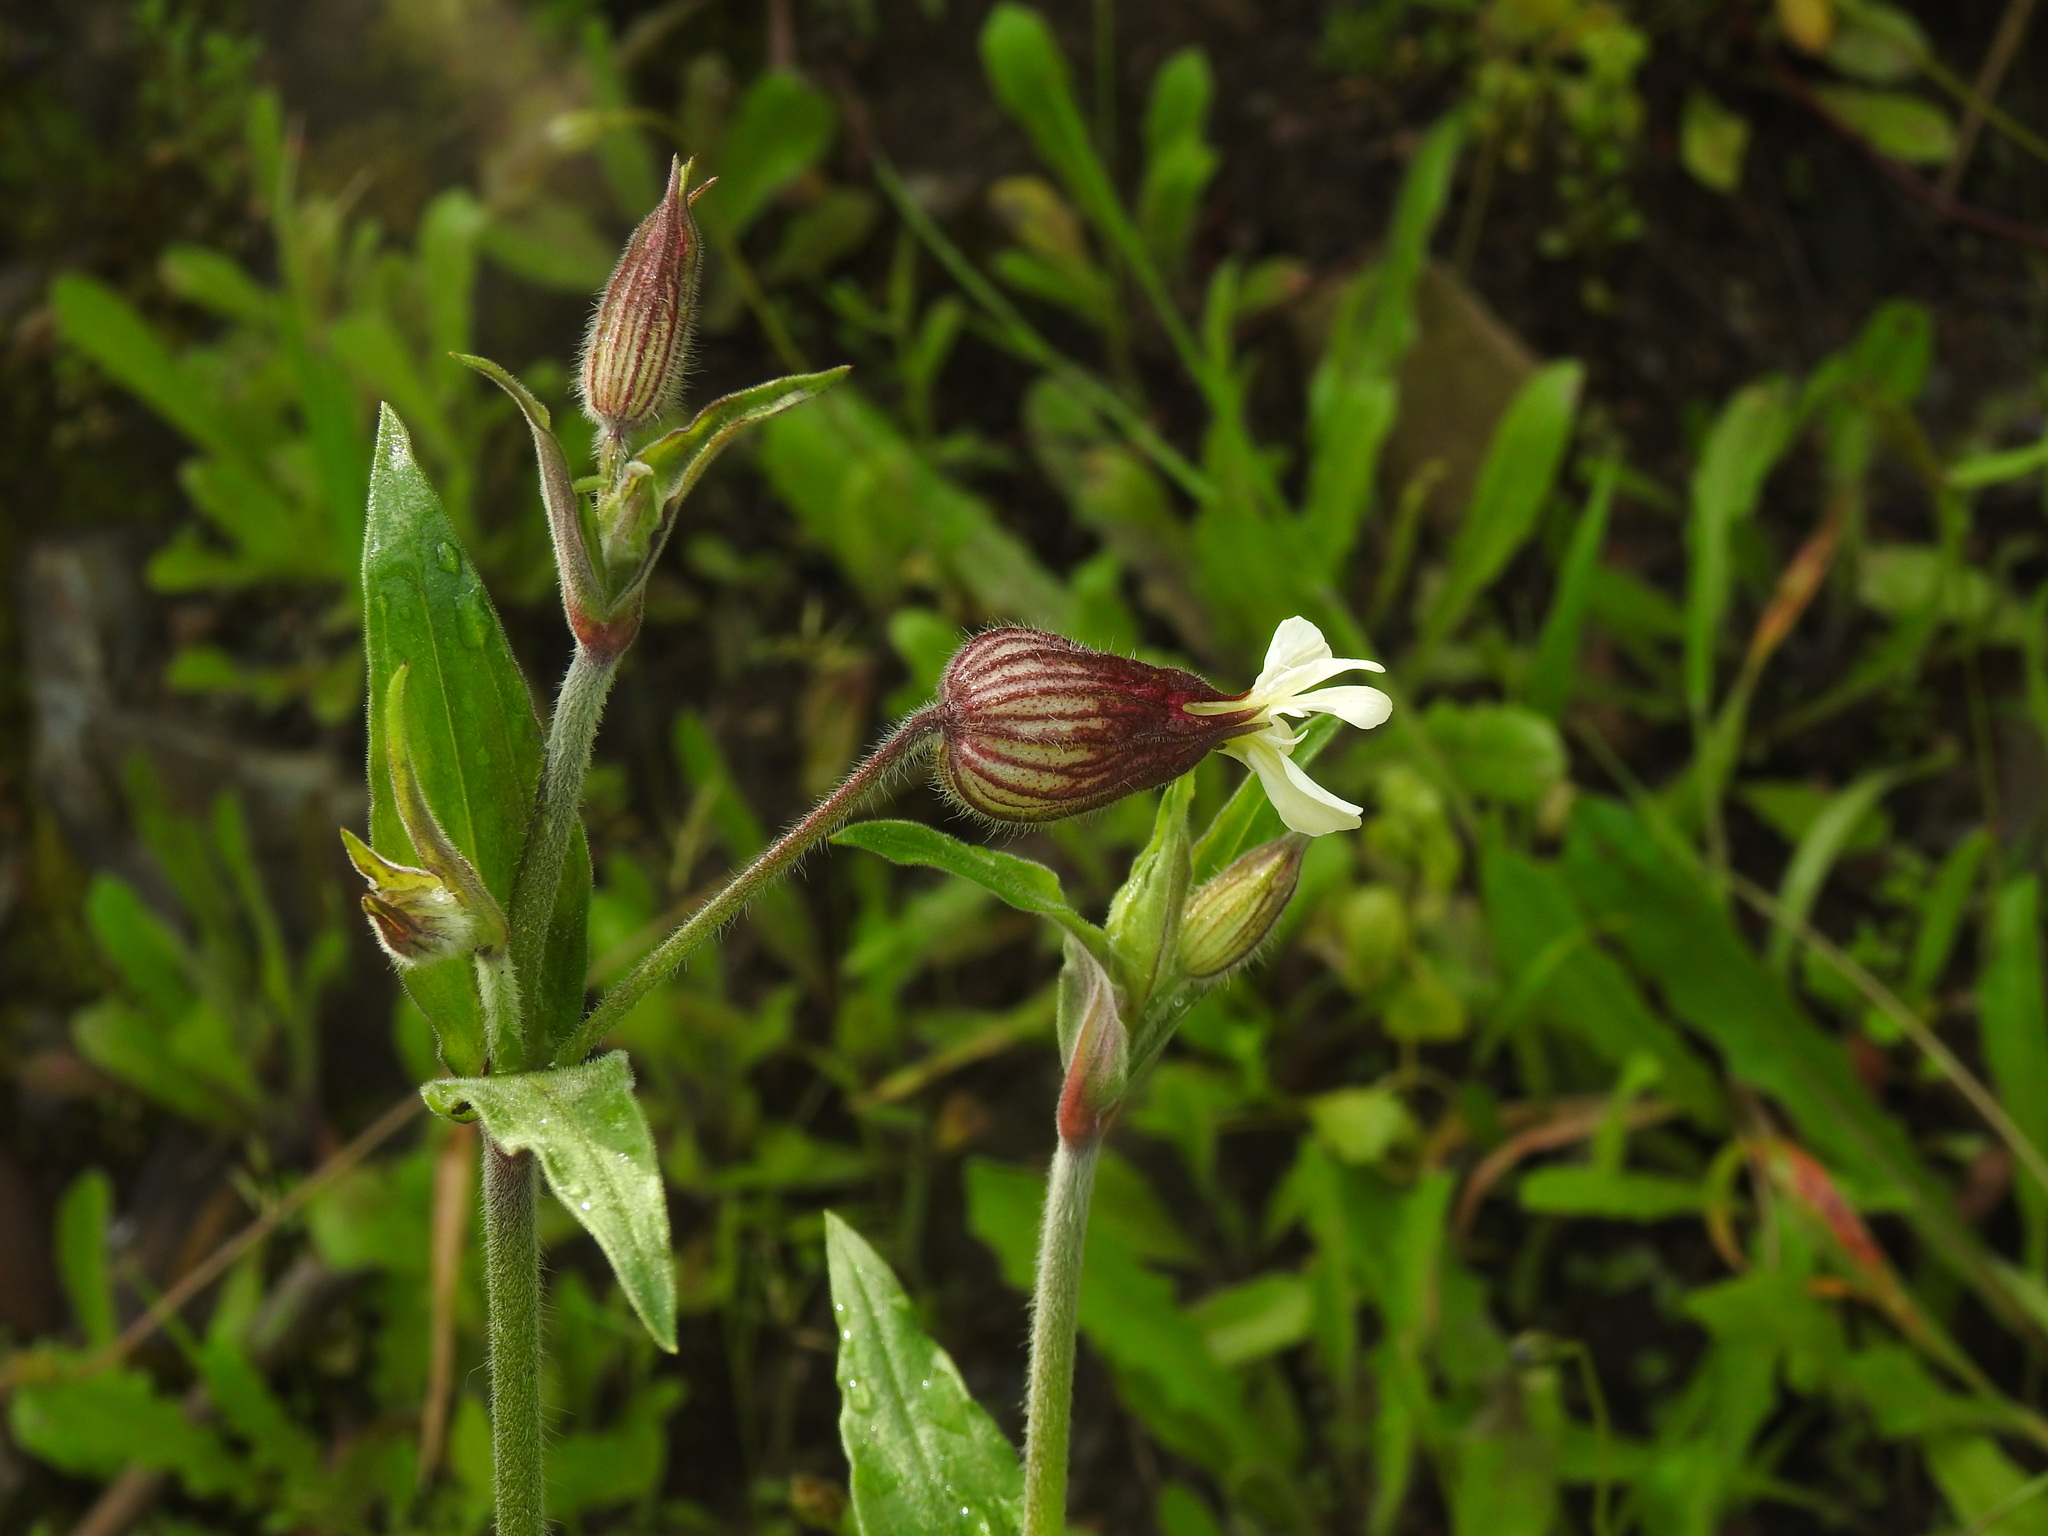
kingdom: Plantae
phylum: Tracheophyta
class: Magnoliopsida
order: Caryophyllales
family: Caryophyllaceae
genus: Silene
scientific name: Silene latifolia
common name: White campion
